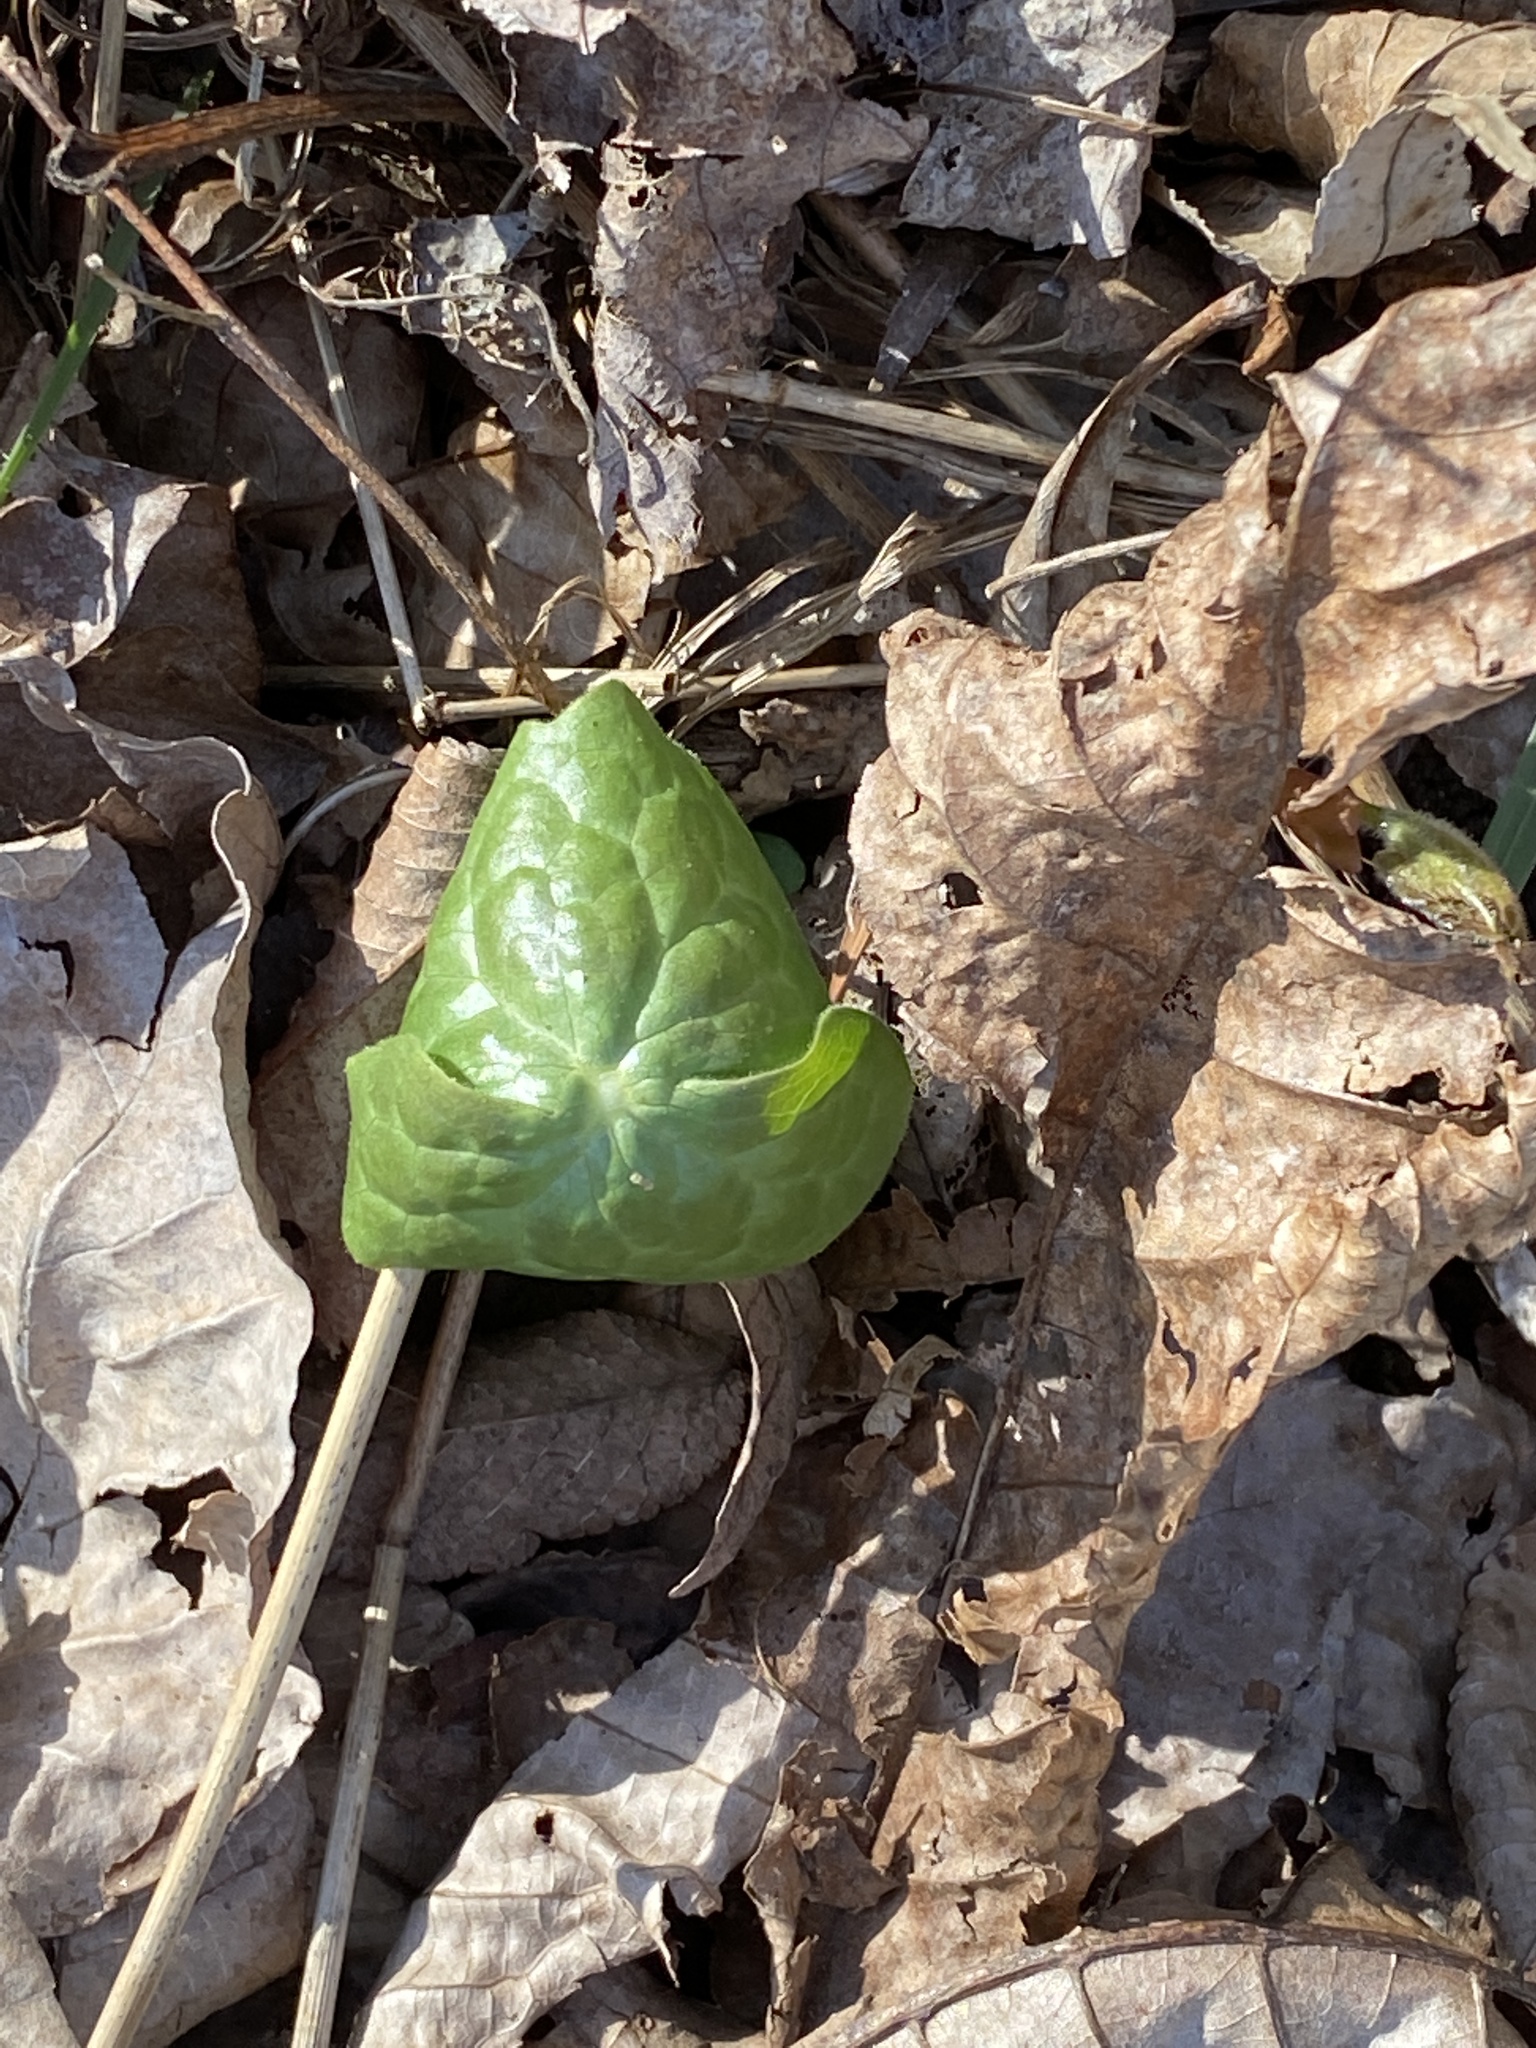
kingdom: Plantae
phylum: Tracheophyta
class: Magnoliopsida
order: Ranunculales
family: Berberidaceae
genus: Podophyllum
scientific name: Podophyllum peltatum
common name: Wild mandrake
